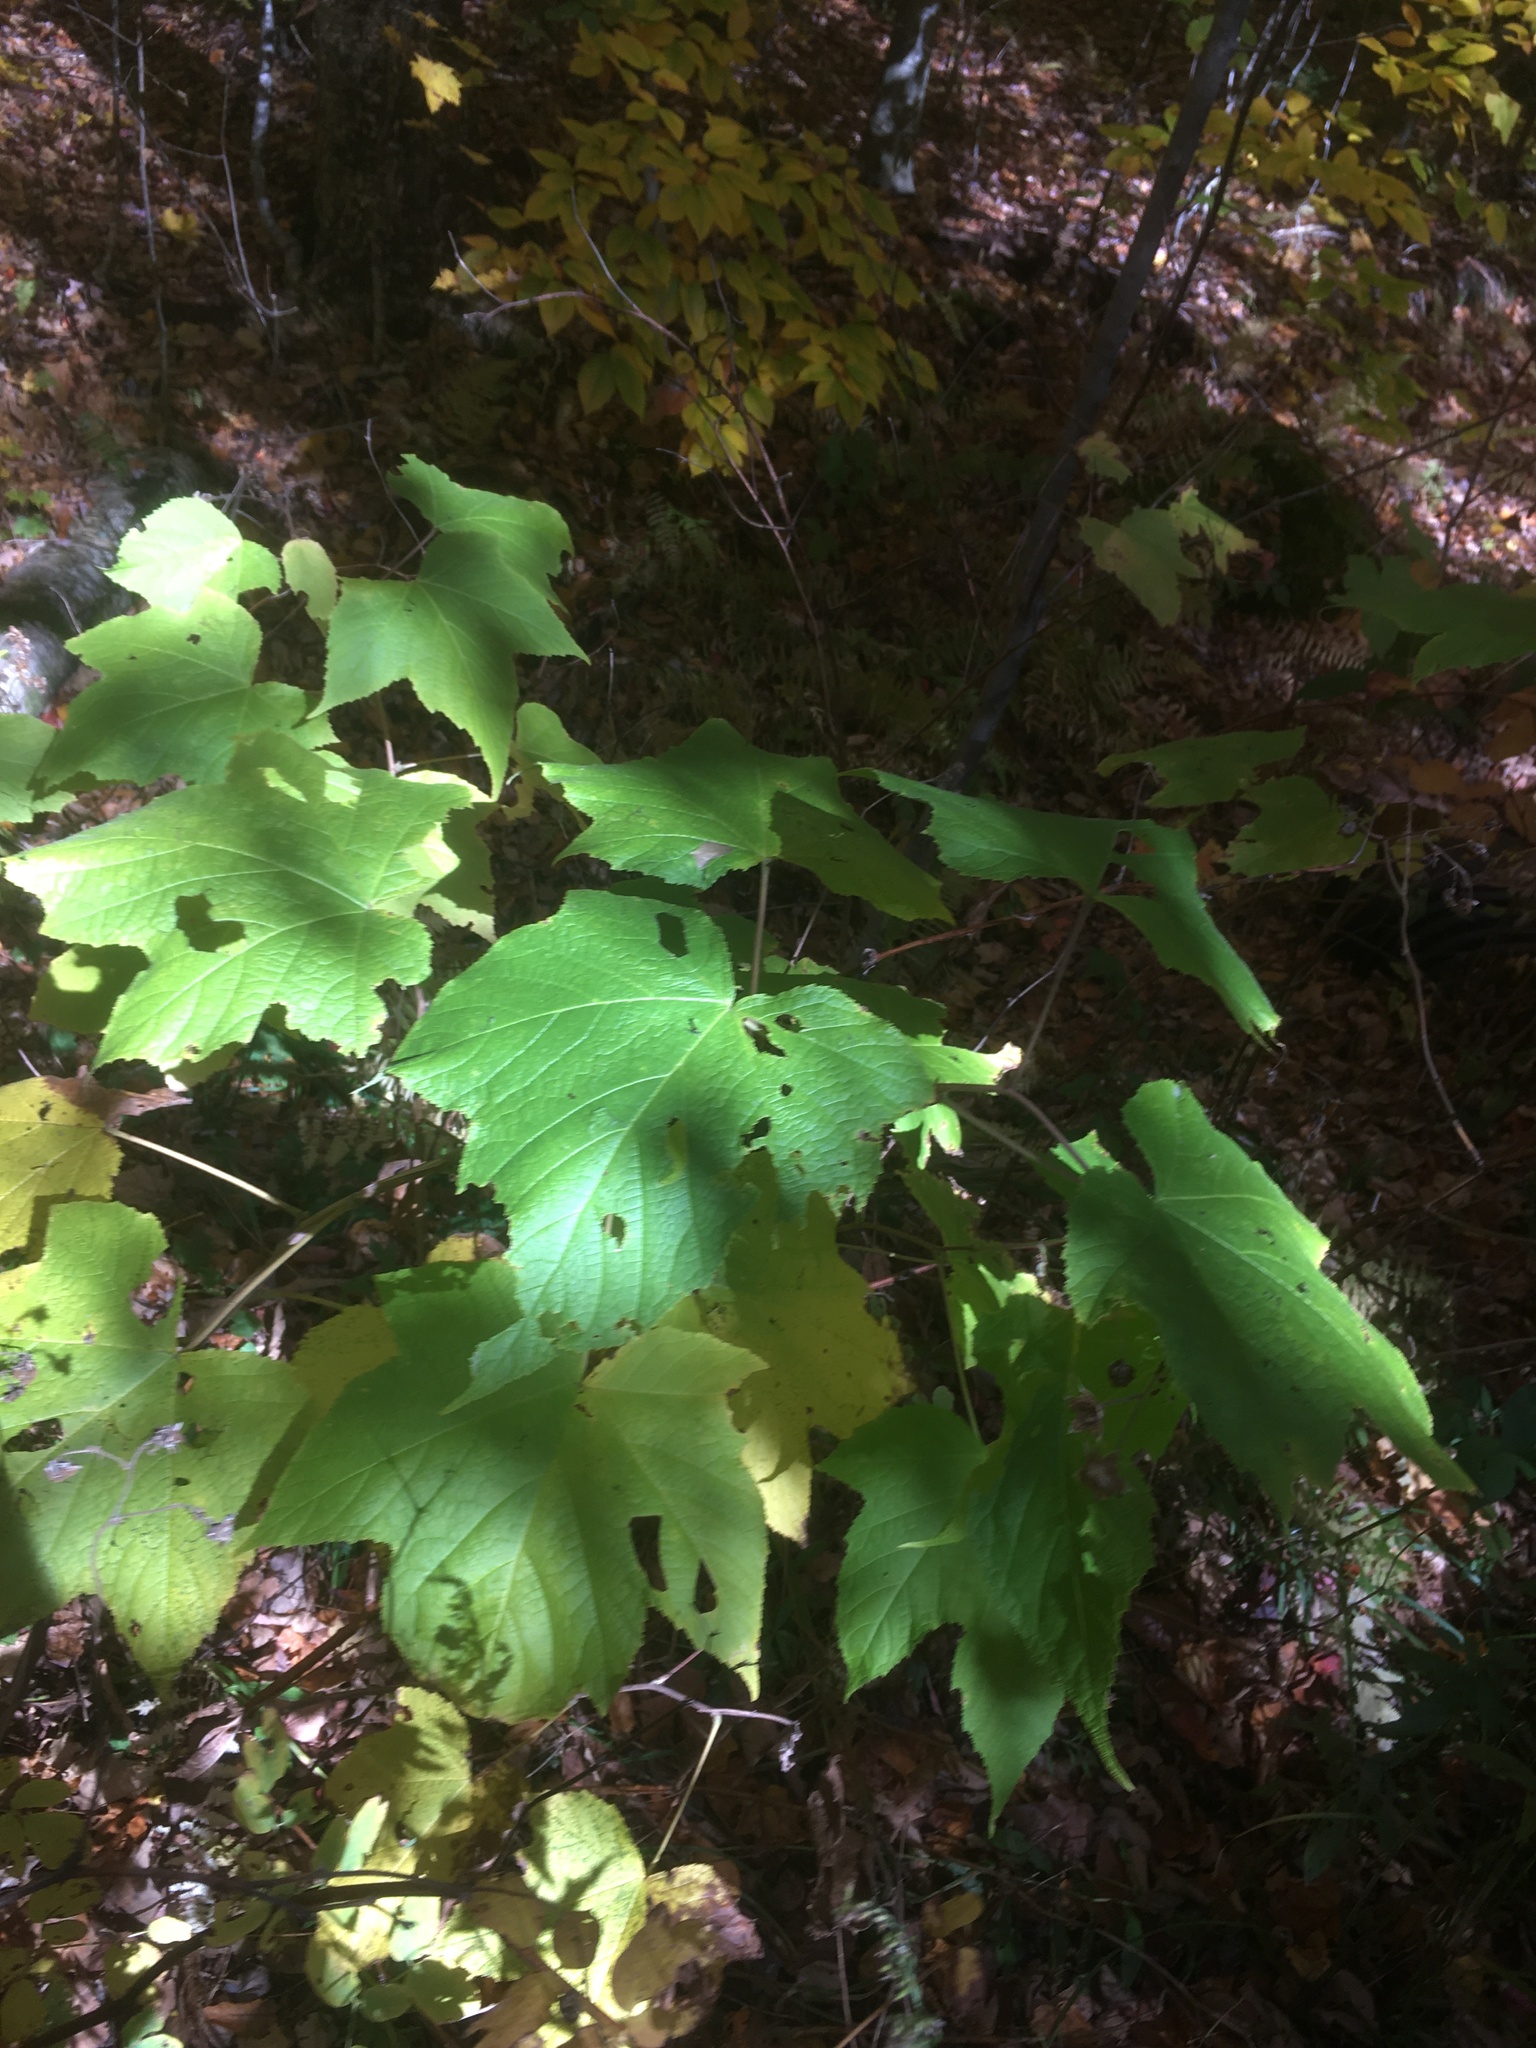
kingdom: Plantae
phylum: Tracheophyta
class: Magnoliopsida
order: Rosales
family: Rosaceae
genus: Rubus
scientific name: Rubus odoratus
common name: Purple-flowered raspberry
